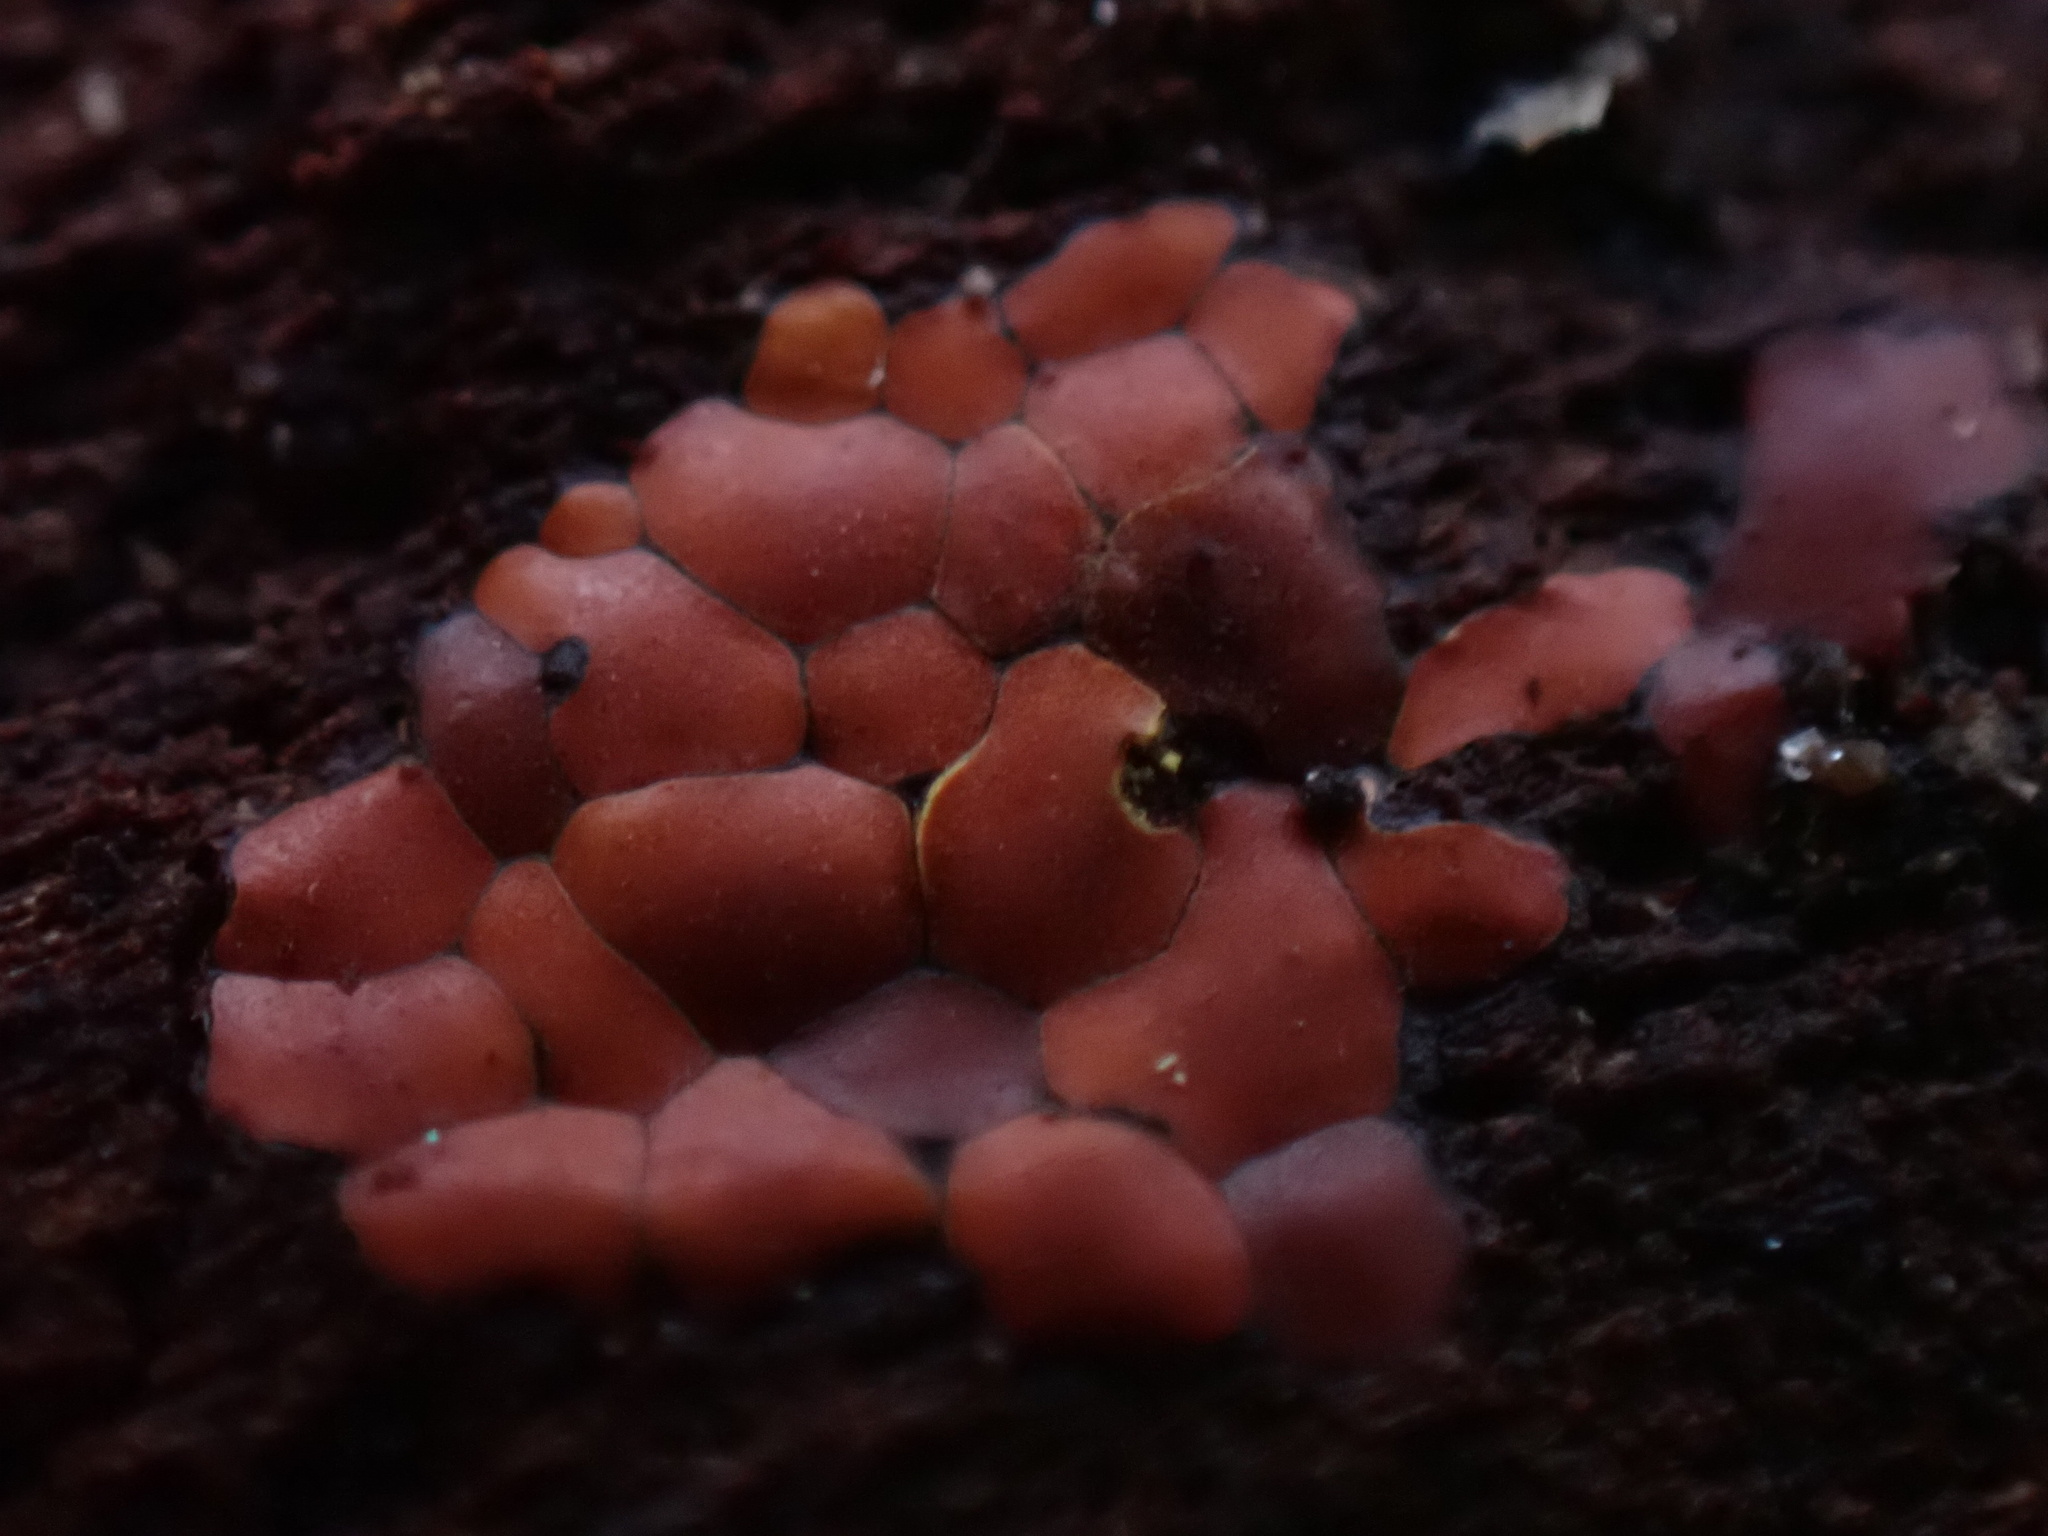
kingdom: Protozoa
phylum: Mycetozoa
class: Myxomycetes
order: Trichiales
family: Trichiaceae
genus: Perichaena
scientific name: Perichaena depressa
